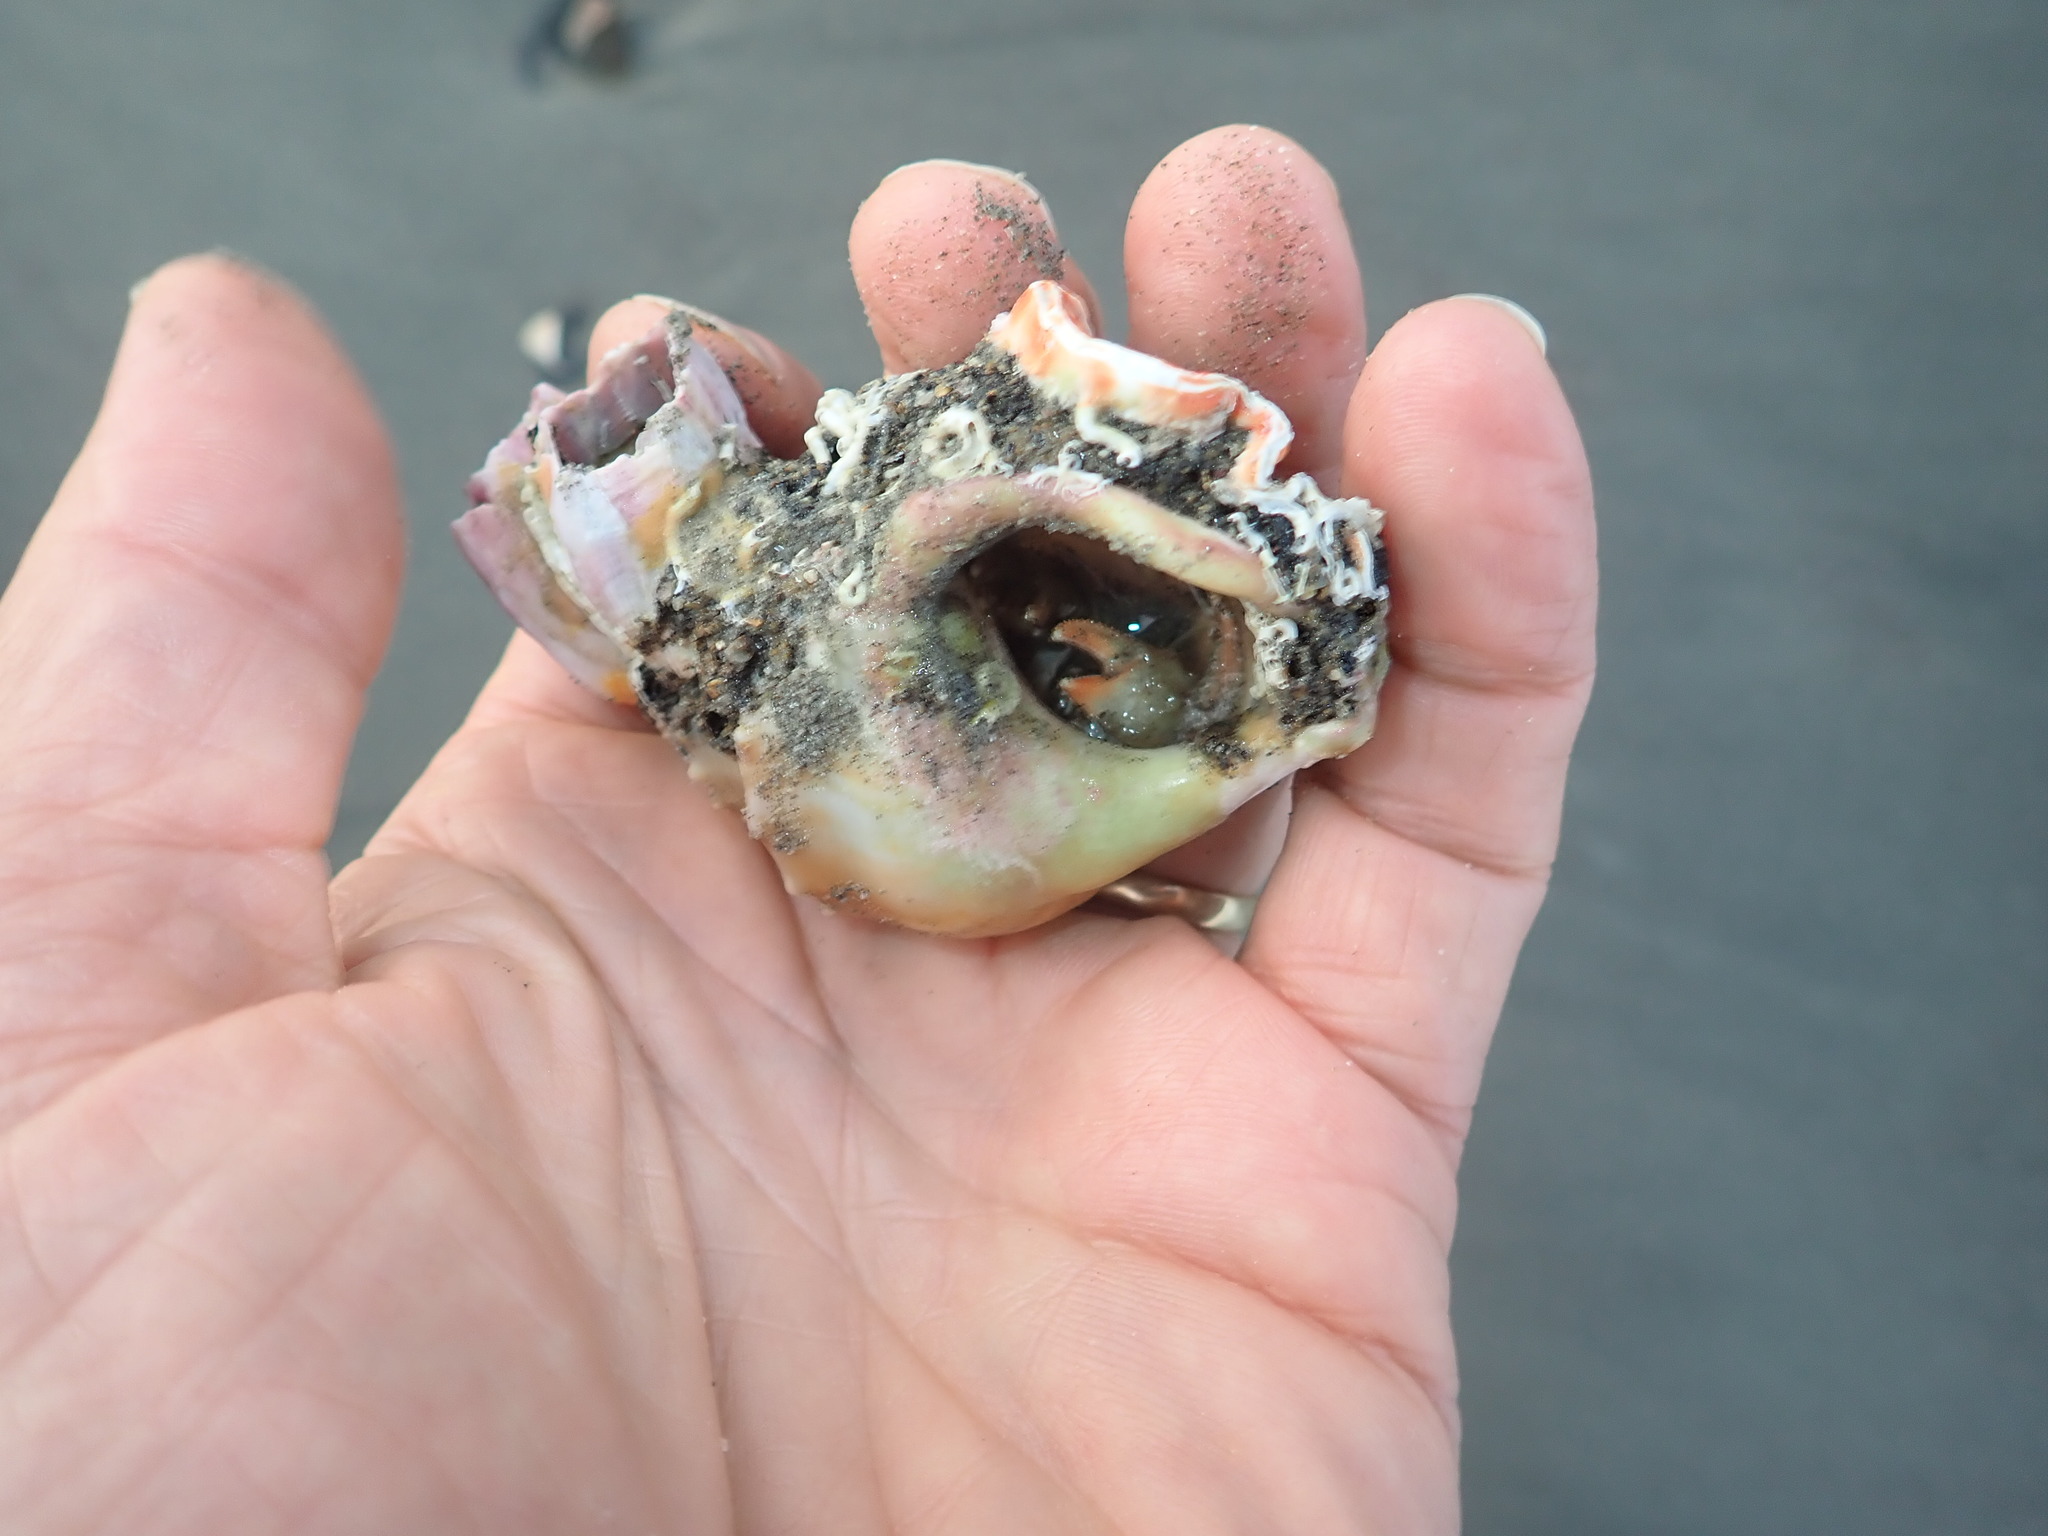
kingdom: Animalia
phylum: Mollusca
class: Gastropoda
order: Littorinimorpha
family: Struthiolariidae
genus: Struthiolaria
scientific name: Struthiolaria papulosa
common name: Large ostrich foot
